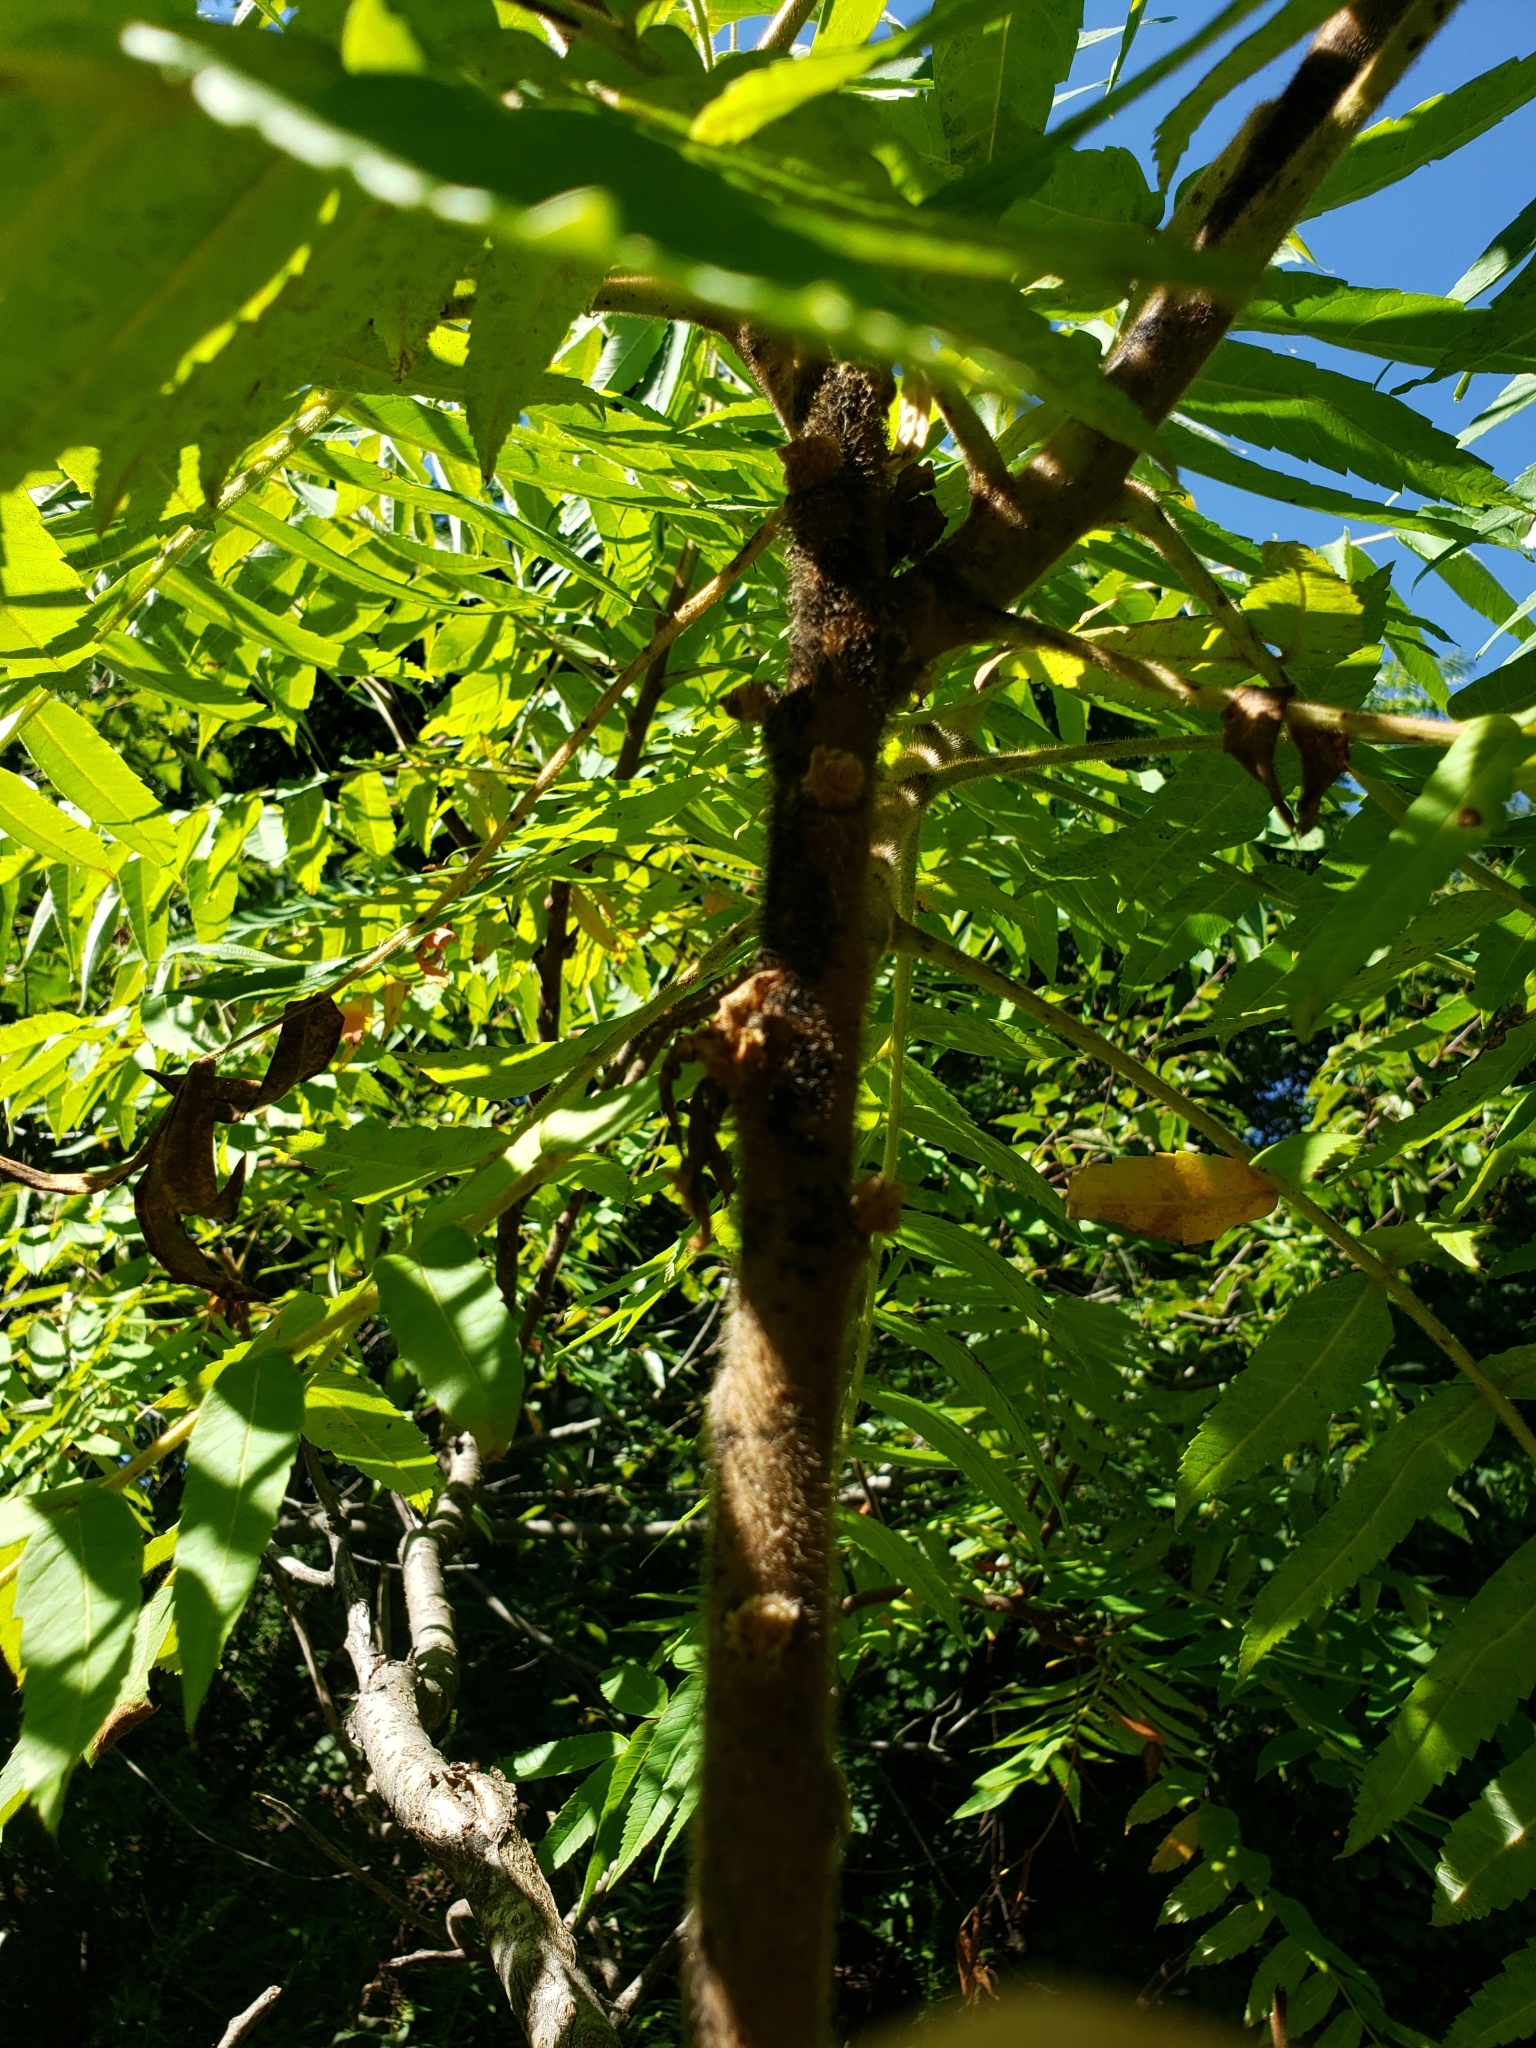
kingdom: Plantae
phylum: Tracheophyta
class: Magnoliopsida
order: Sapindales
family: Anacardiaceae
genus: Rhus
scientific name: Rhus typhina
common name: Staghorn sumac
